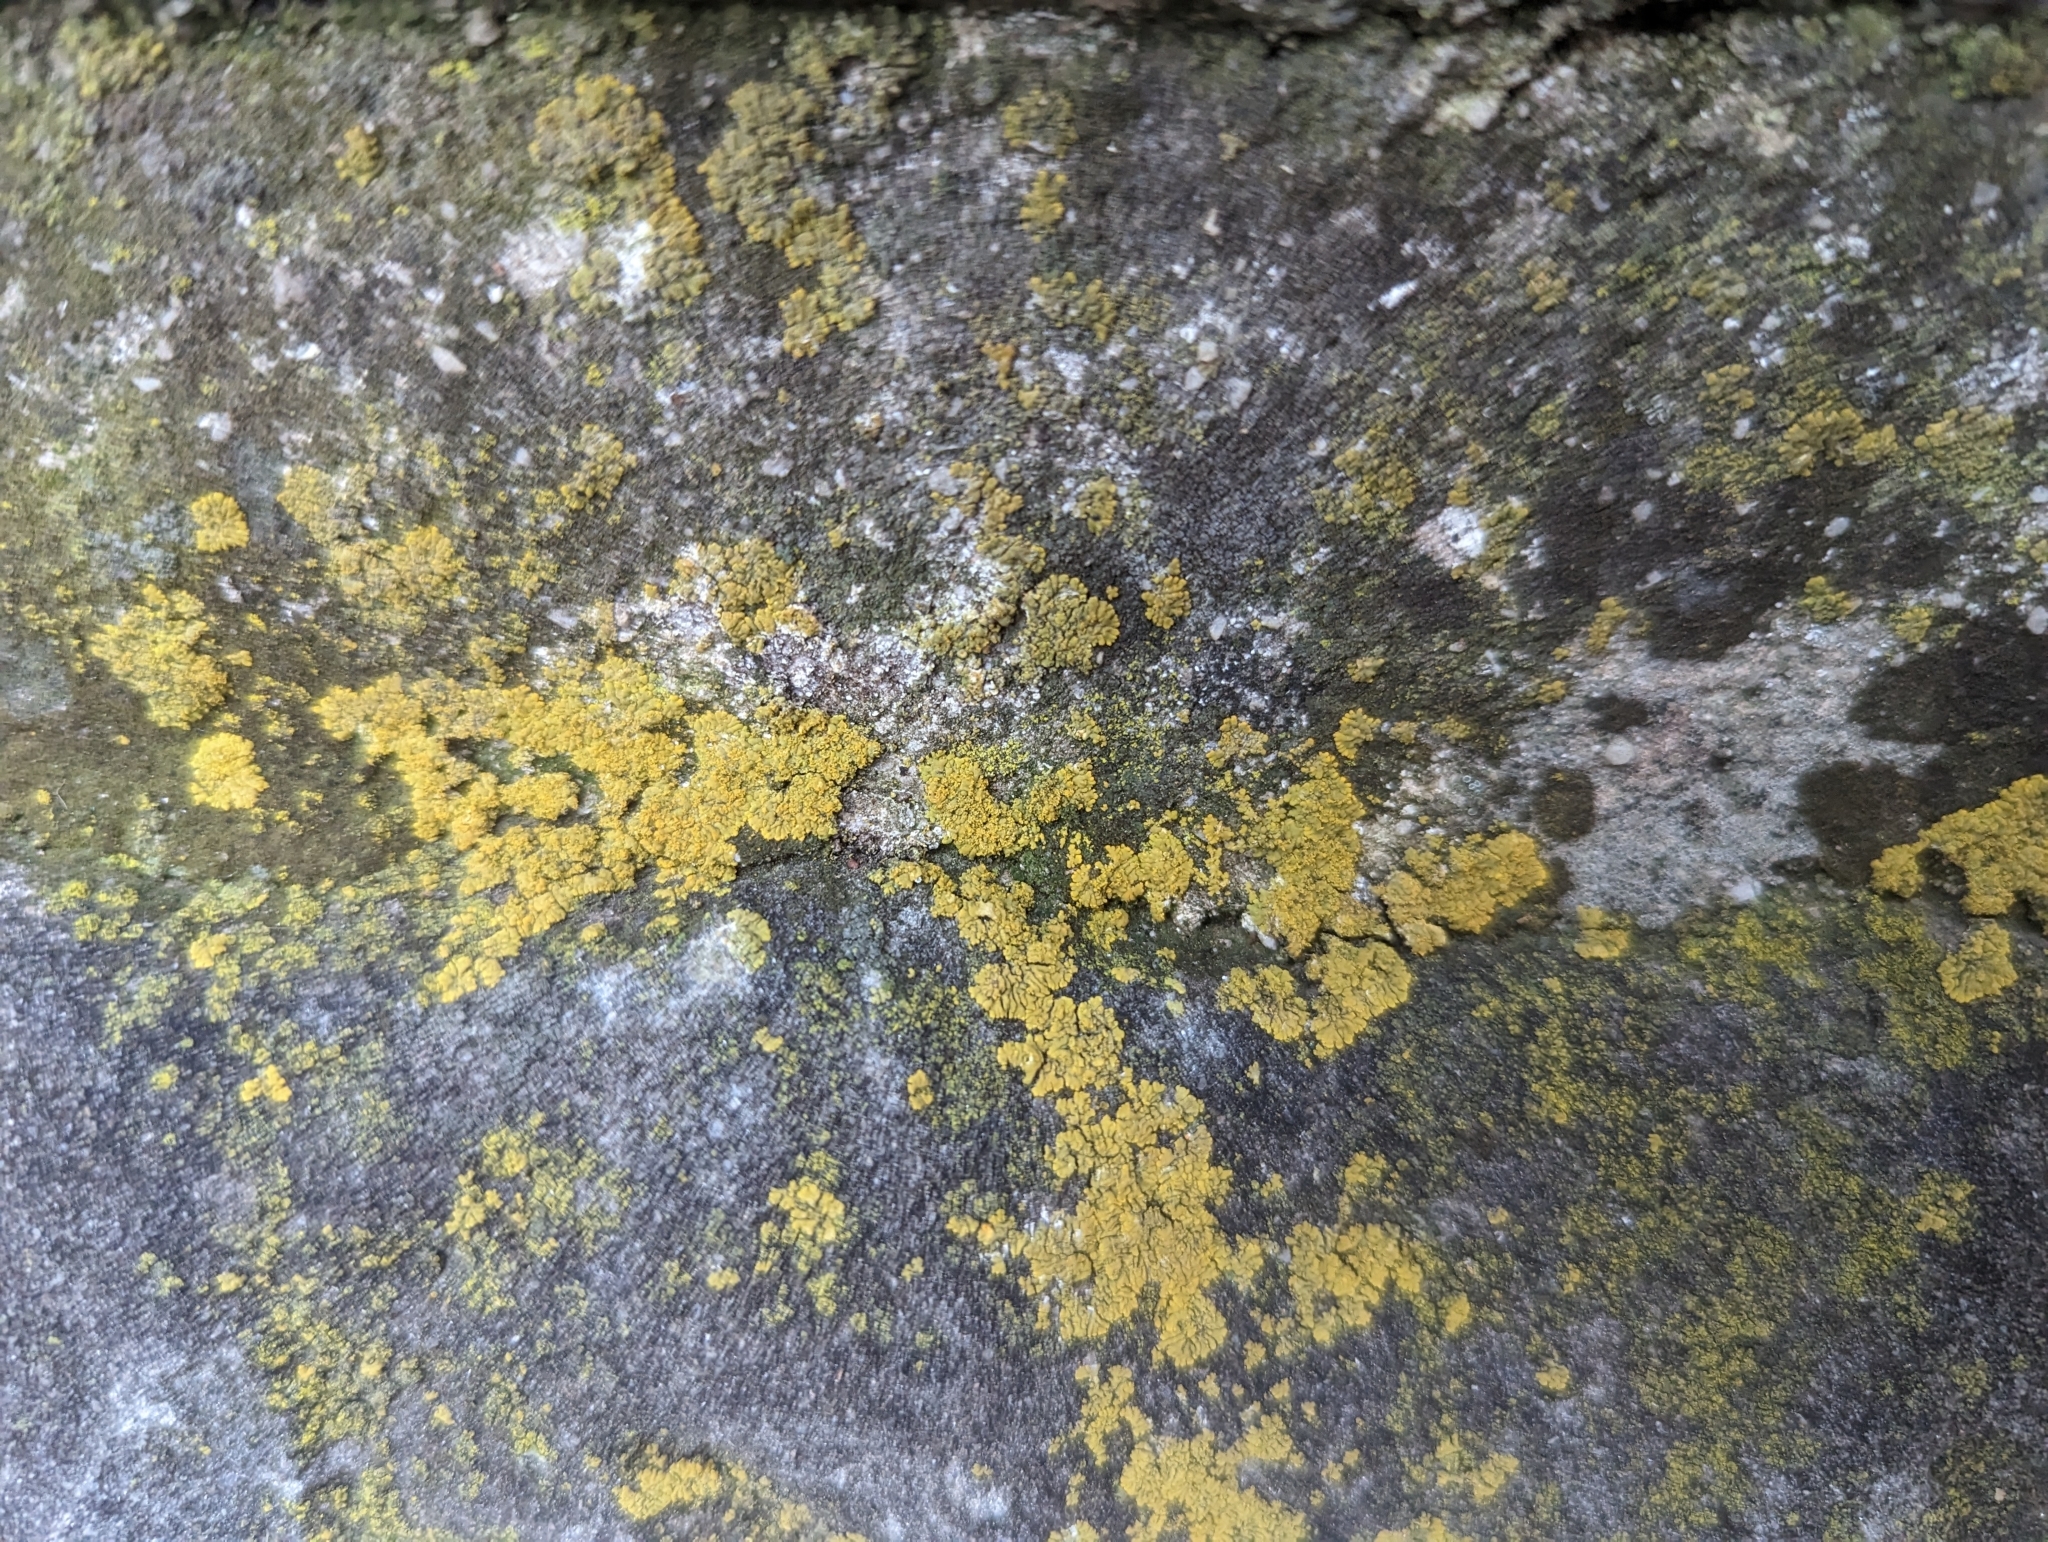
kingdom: Fungi
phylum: Ascomycota
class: Lecanoromycetes
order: Teloschistales
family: Teloschistaceae
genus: Calogaya
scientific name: Calogaya decipiens
